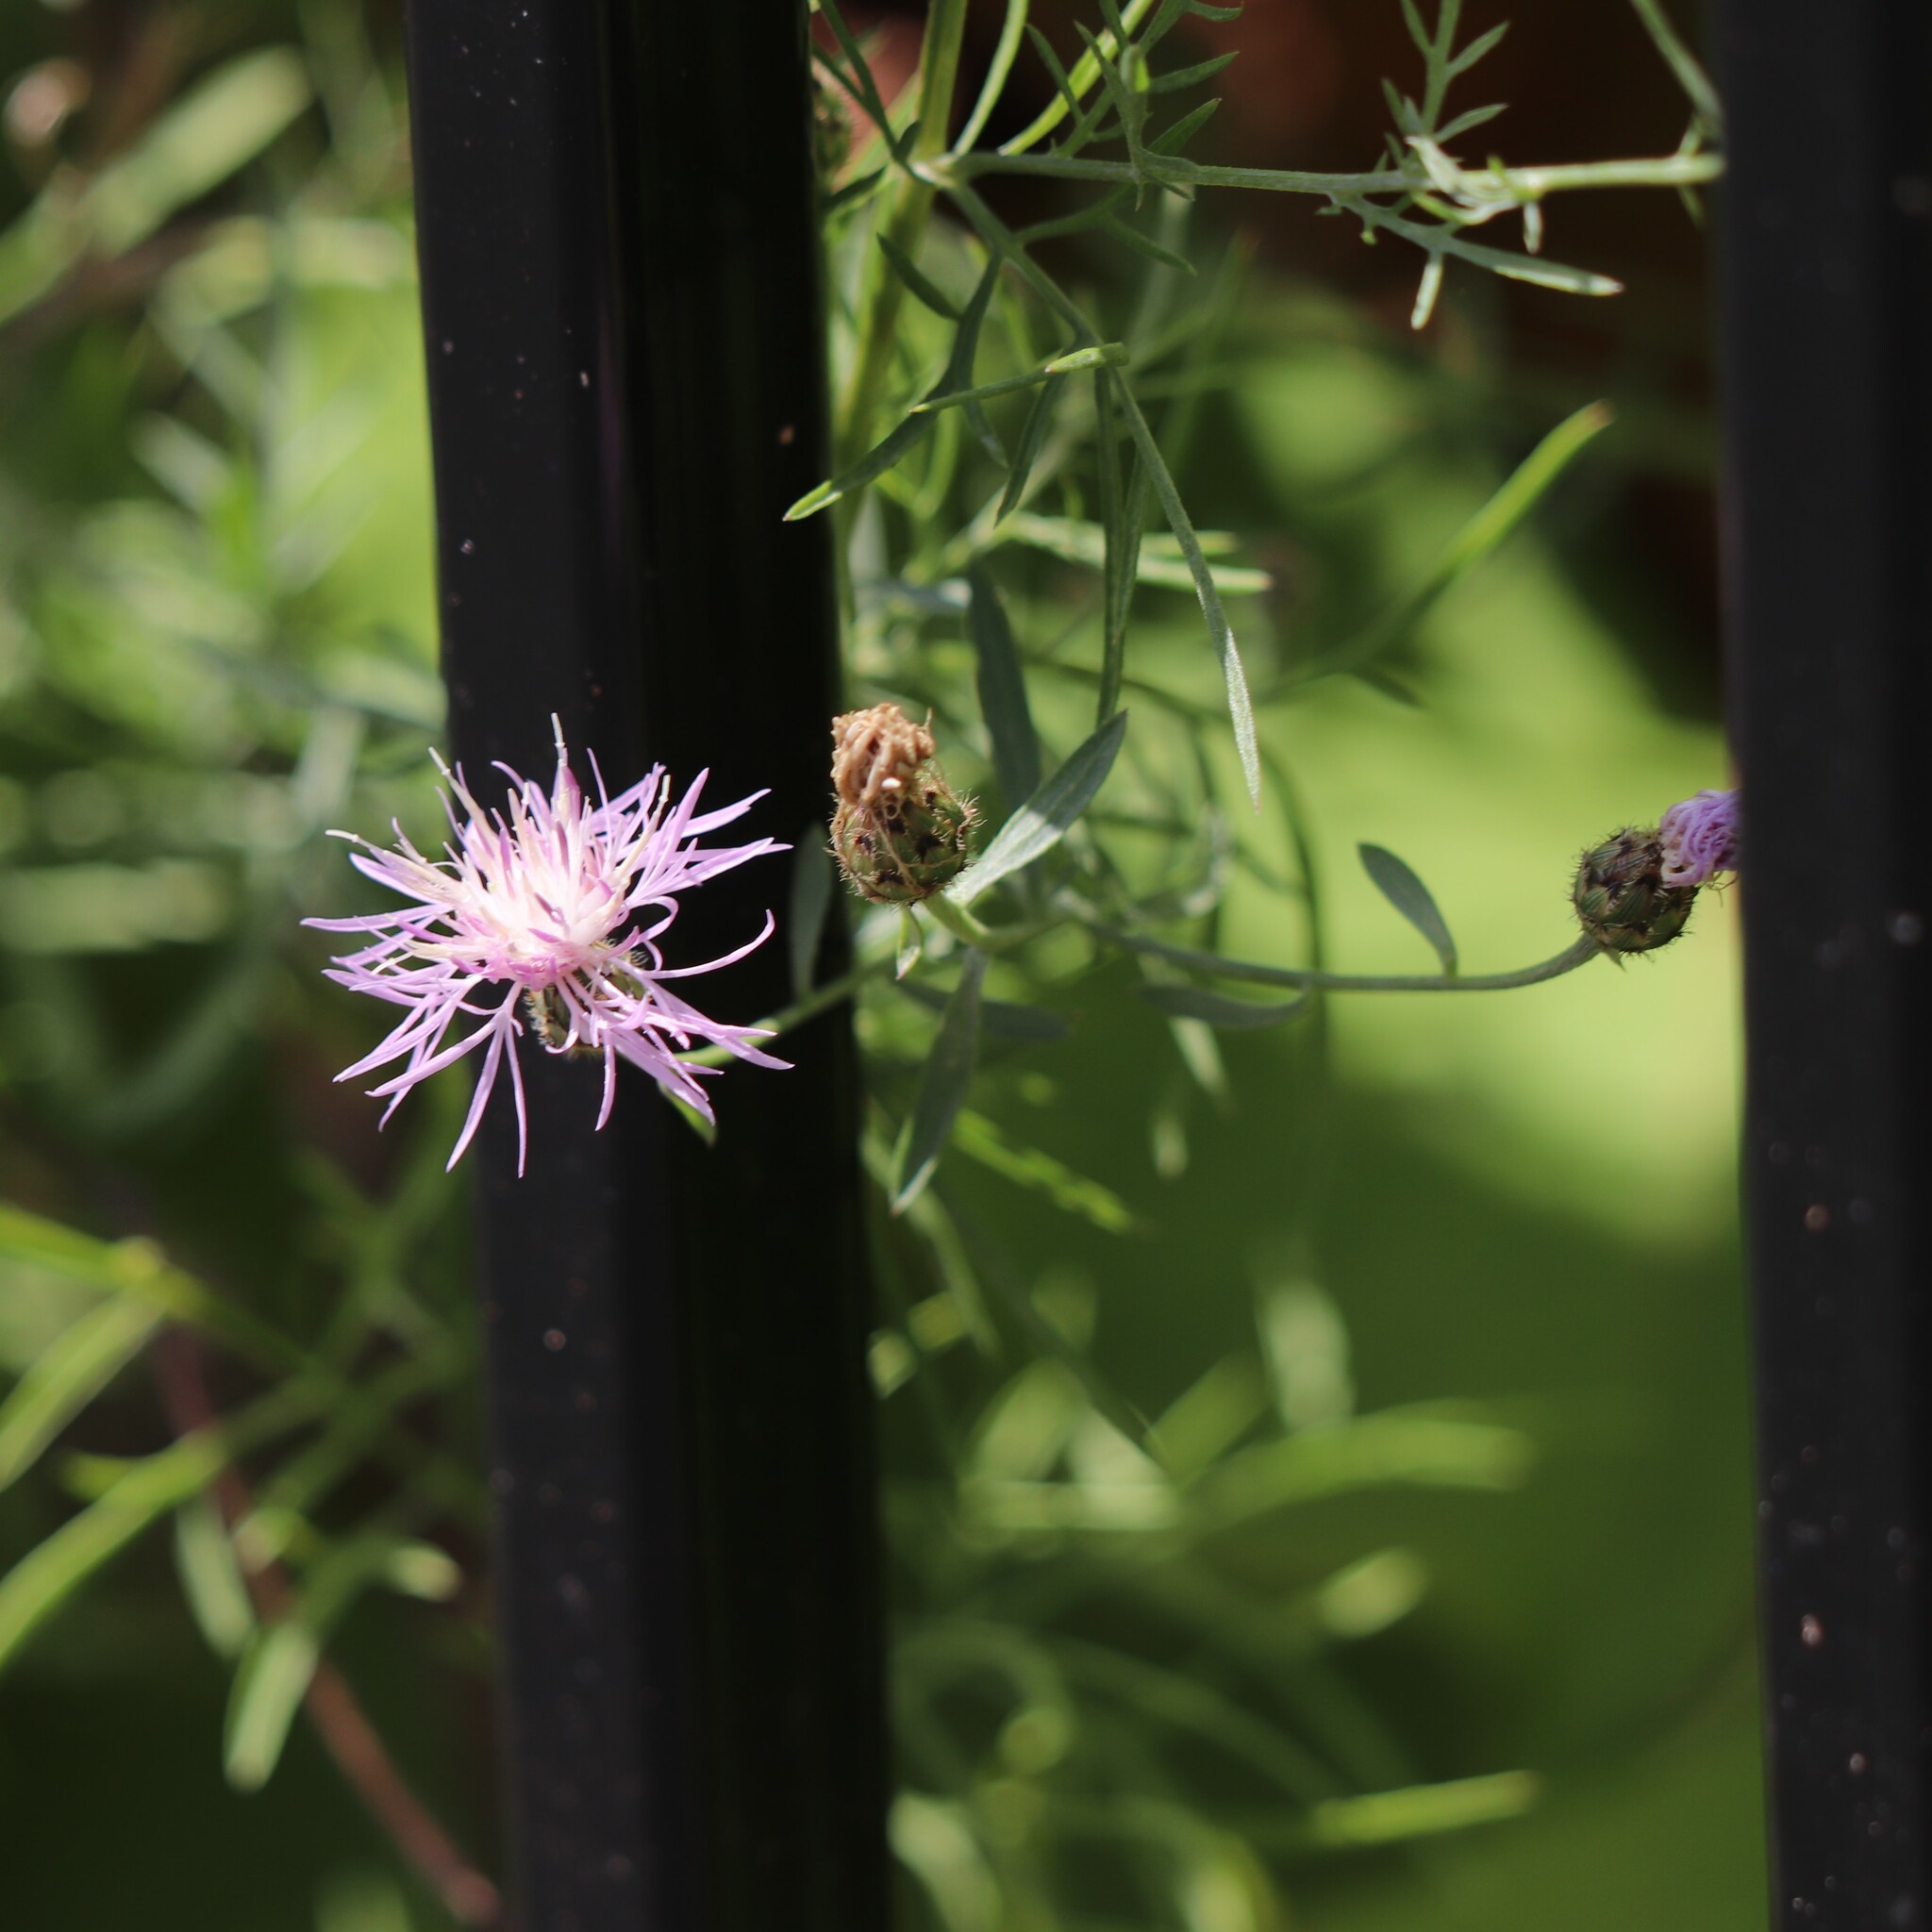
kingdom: Plantae
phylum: Tracheophyta
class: Magnoliopsida
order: Asterales
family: Asteraceae
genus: Centaurea
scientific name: Centaurea stoebe
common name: Spotted knapweed
